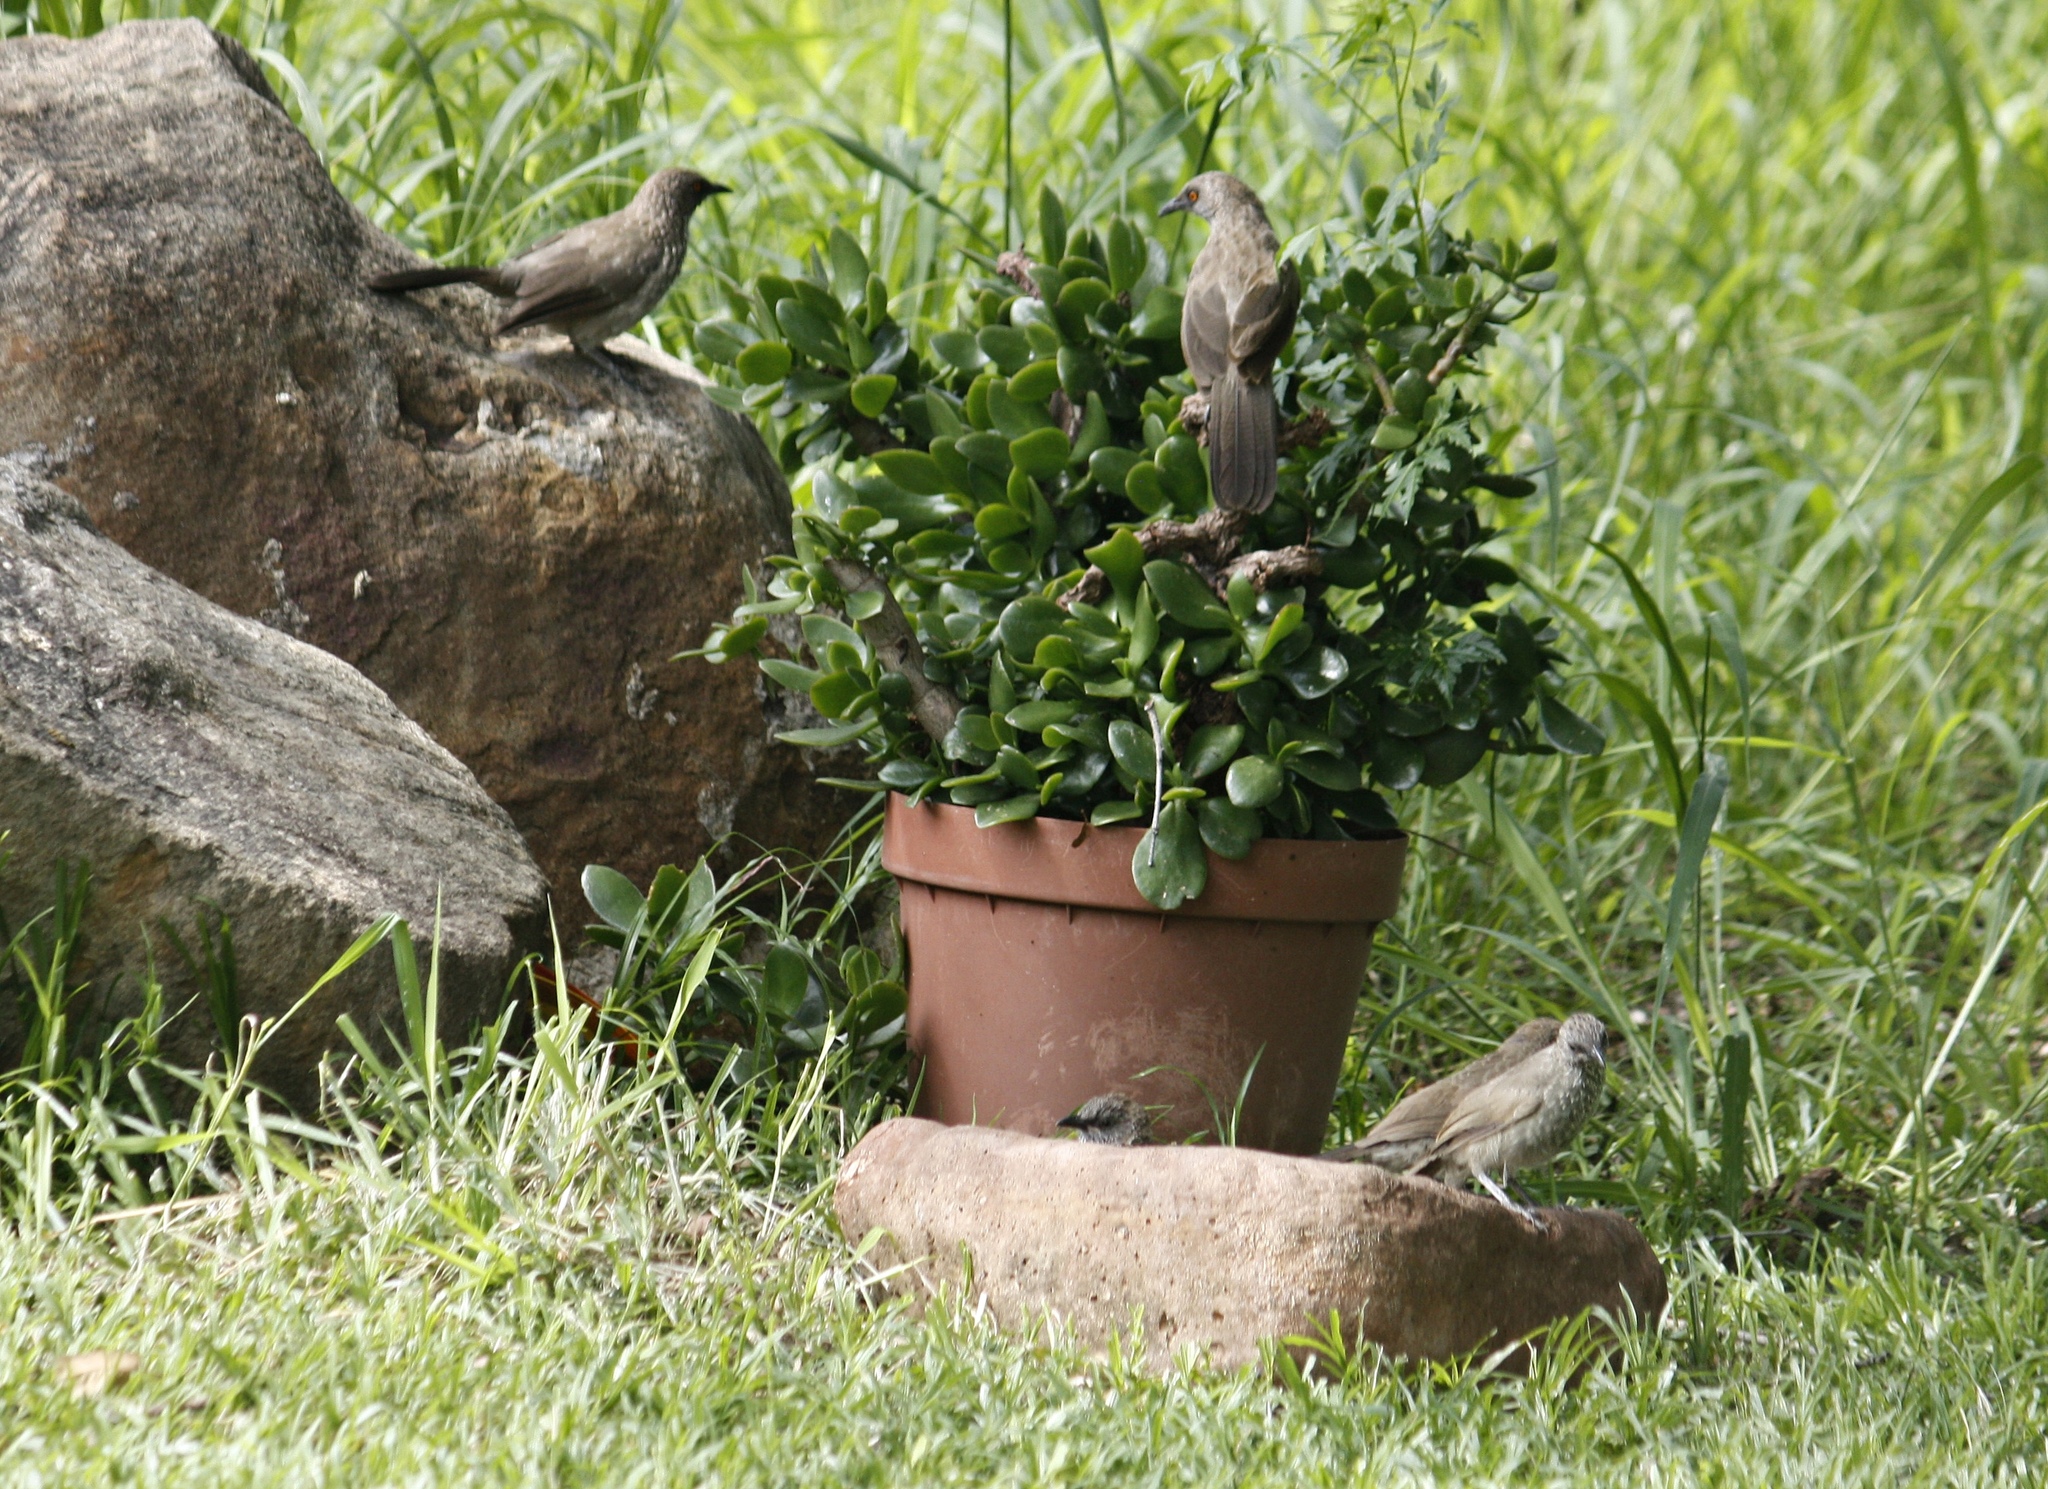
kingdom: Animalia
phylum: Chordata
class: Aves
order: Passeriformes
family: Leiothrichidae
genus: Turdoides
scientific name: Turdoides jardineii
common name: Arrow-marked babbler
